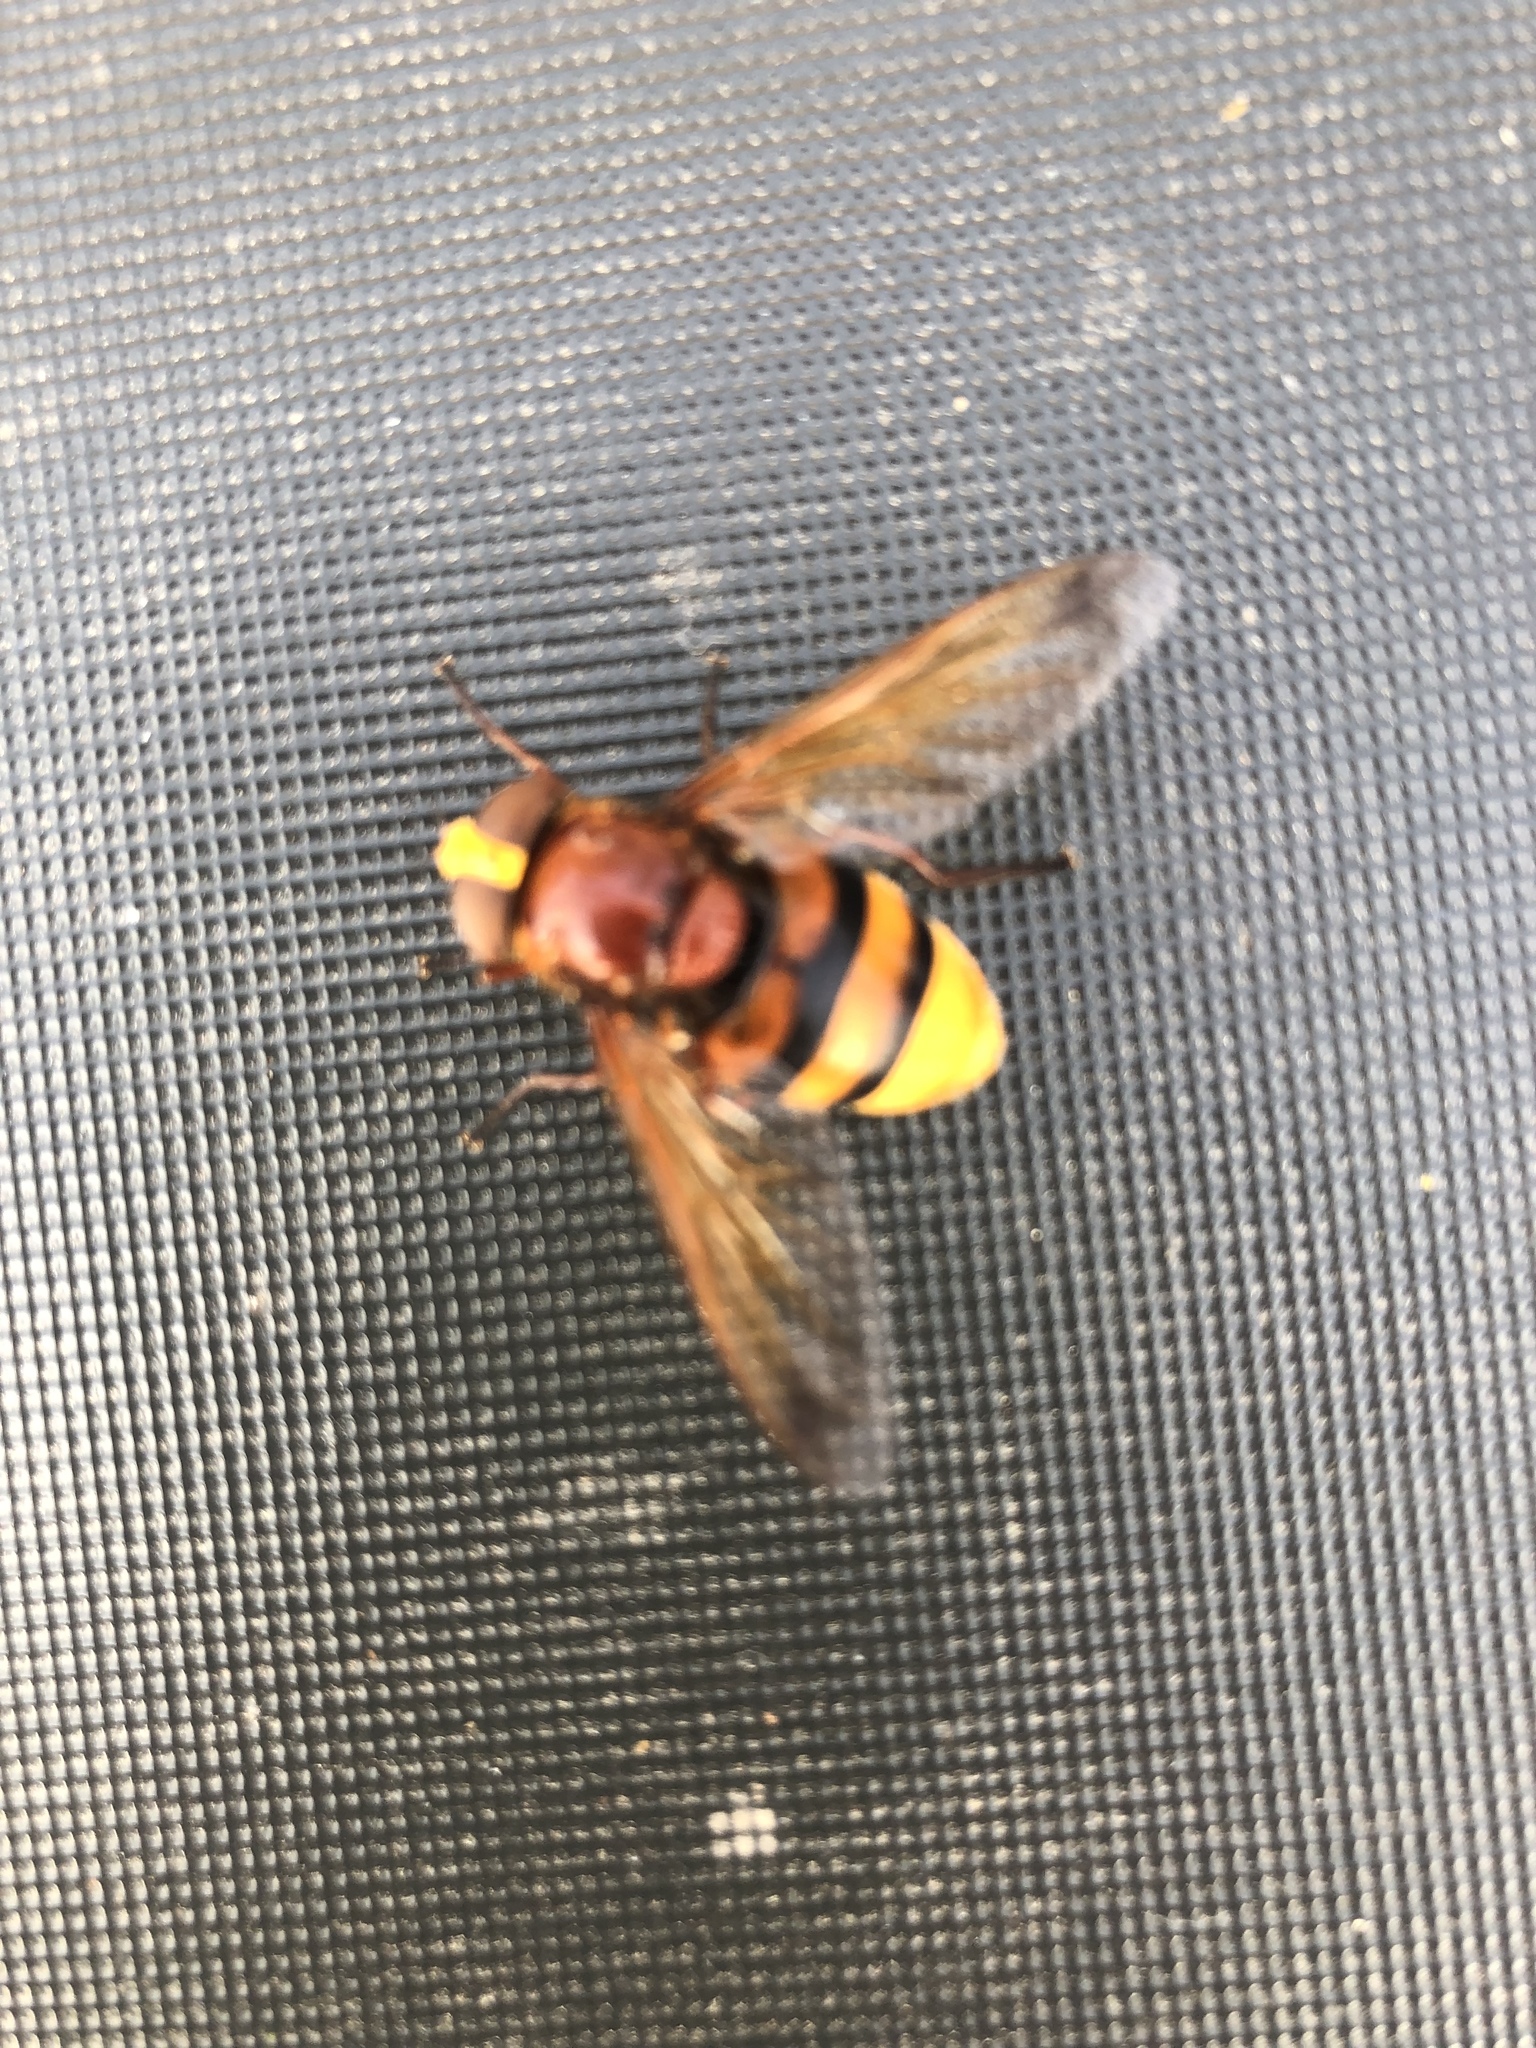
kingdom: Animalia
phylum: Arthropoda
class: Insecta
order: Diptera
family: Syrphidae
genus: Volucella
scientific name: Volucella zonaria
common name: Hornet hoverfly
